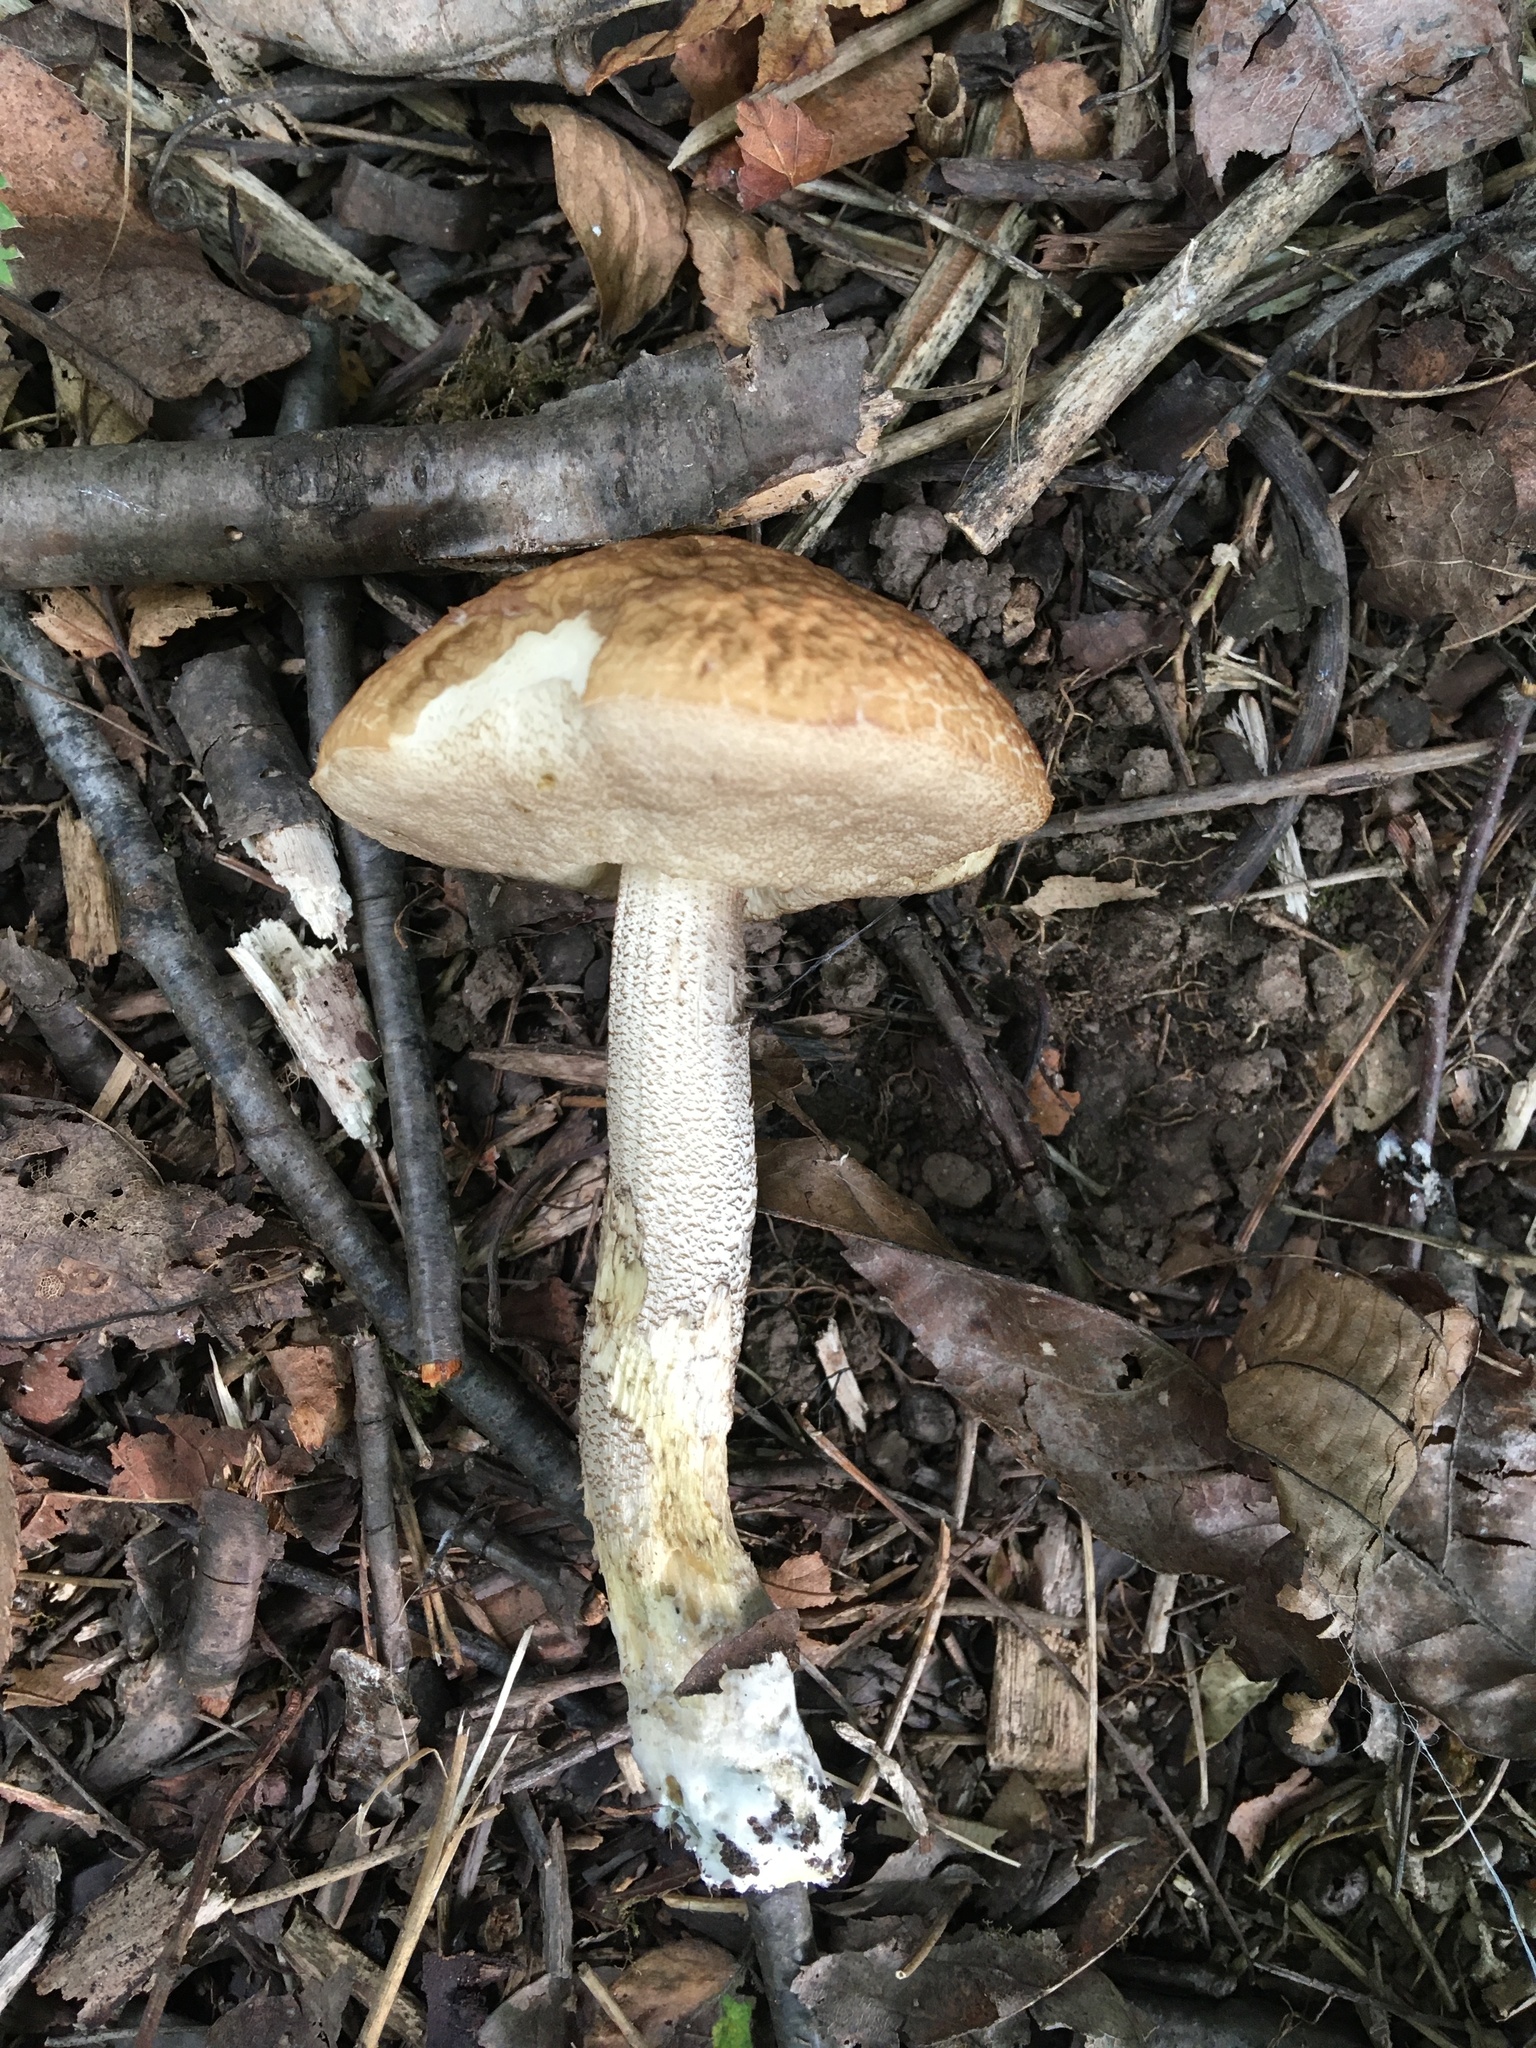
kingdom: Fungi
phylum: Basidiomycota
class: Agaricomycetes
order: Boletales
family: Boletaceae
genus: Leccinellum
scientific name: Leccinellum pseudoscabrum
